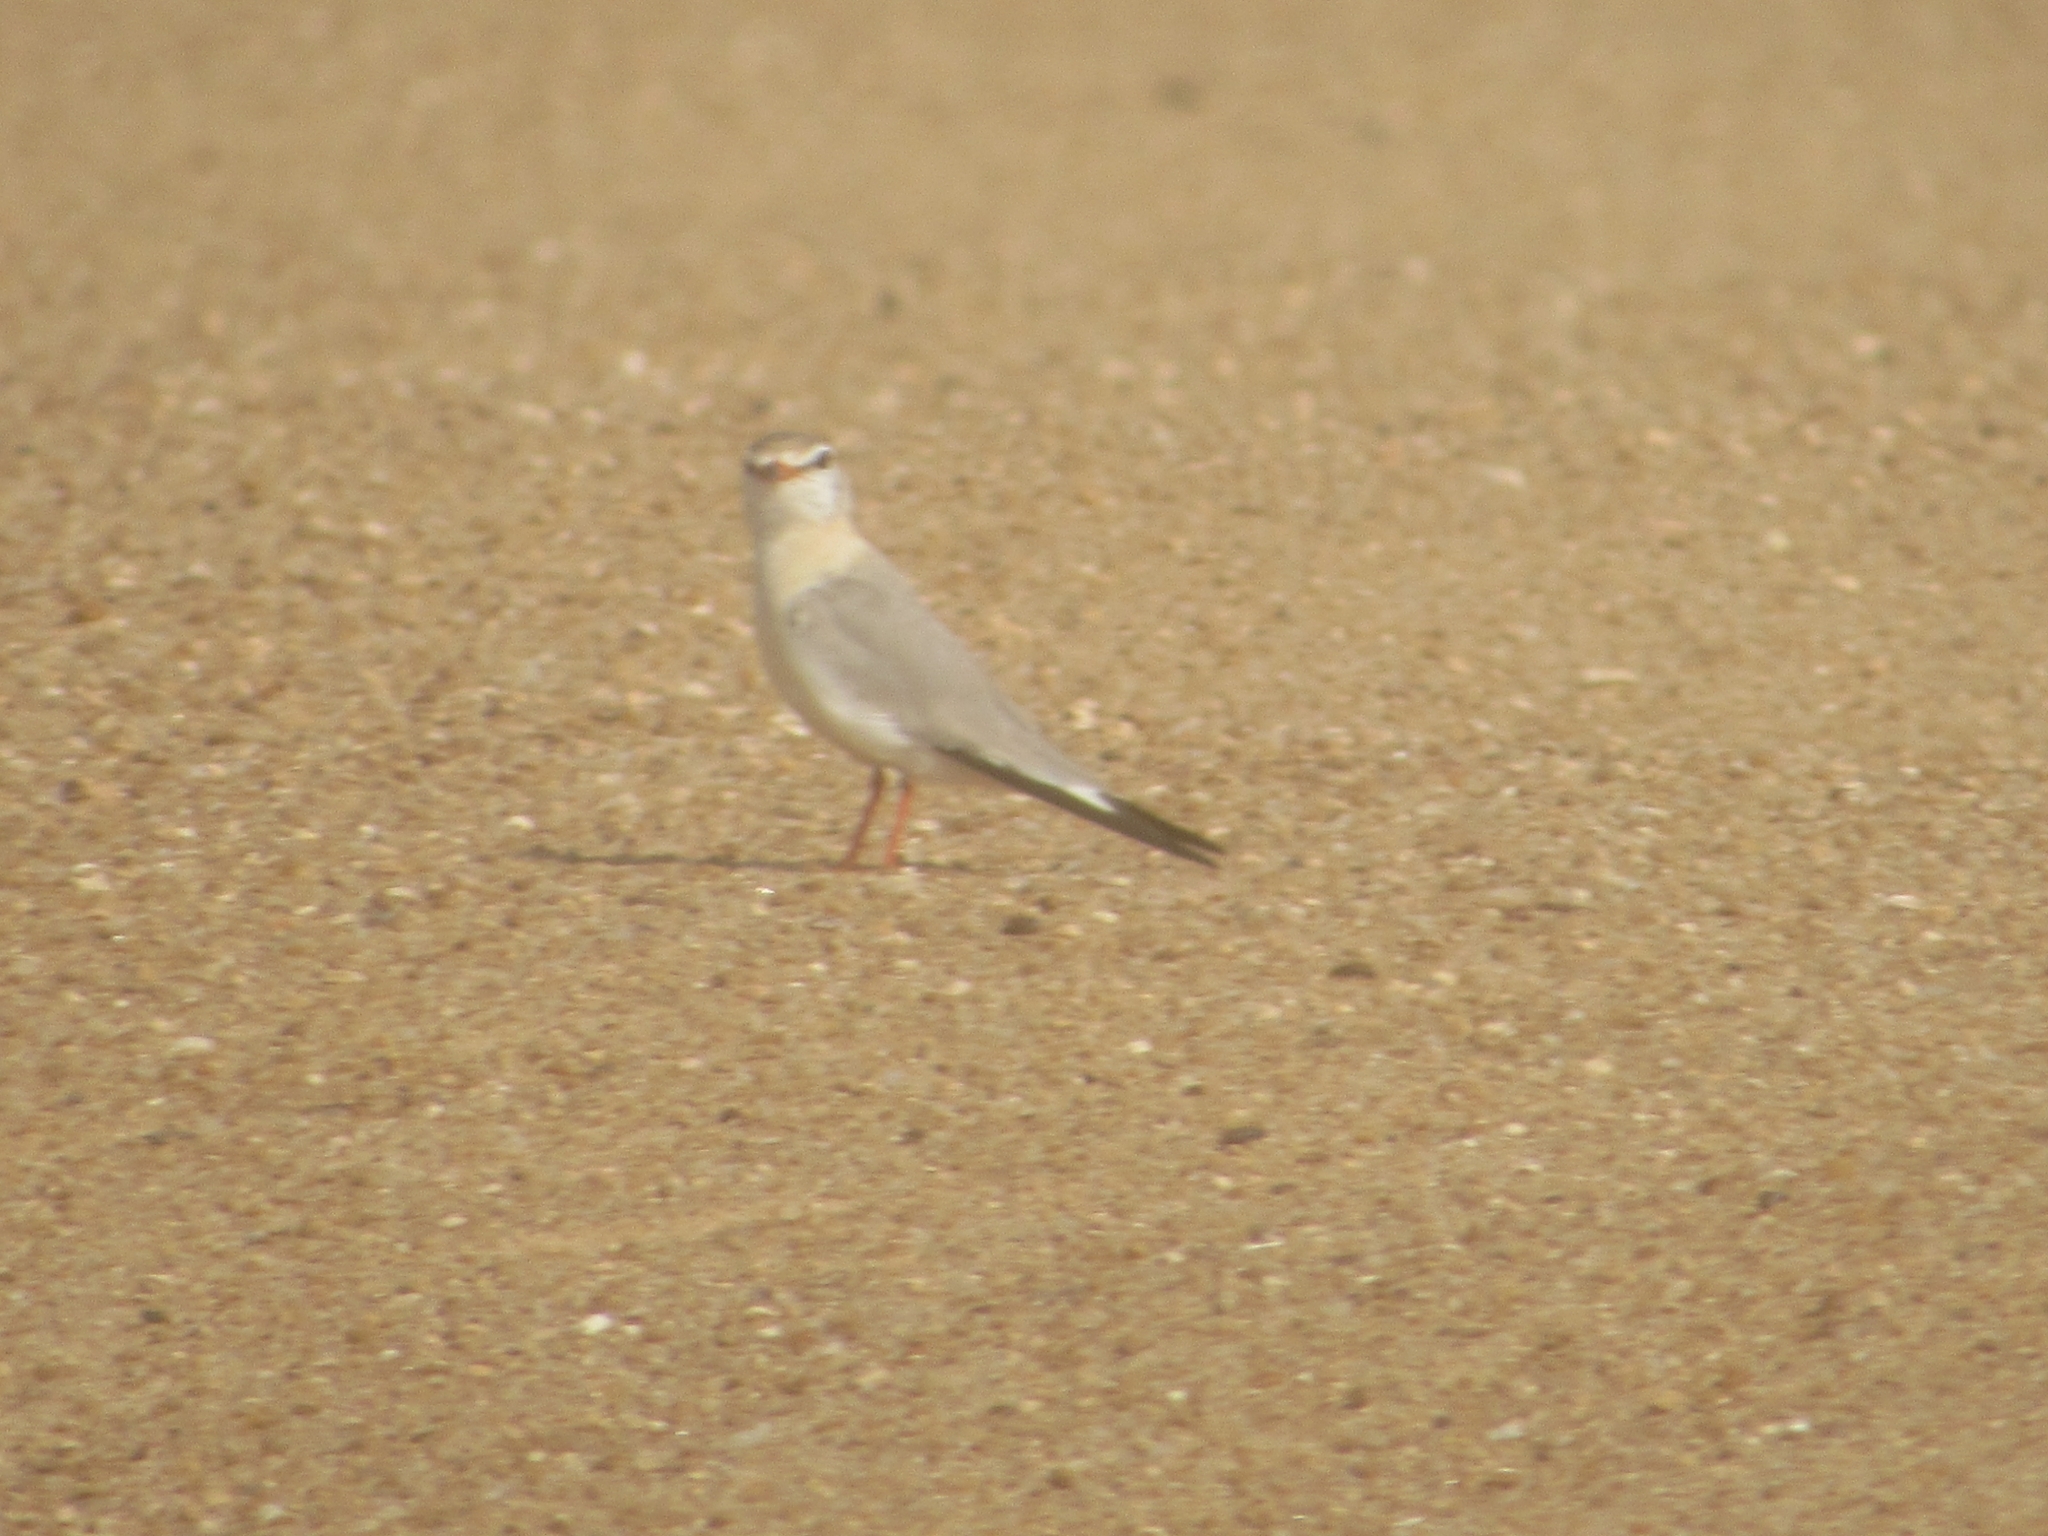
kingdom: Animalia
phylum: Chordata
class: Aves
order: Charadriiformes
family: Glareolidae
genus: Glareola
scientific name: Glareola cinerea
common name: Grey pratincole
